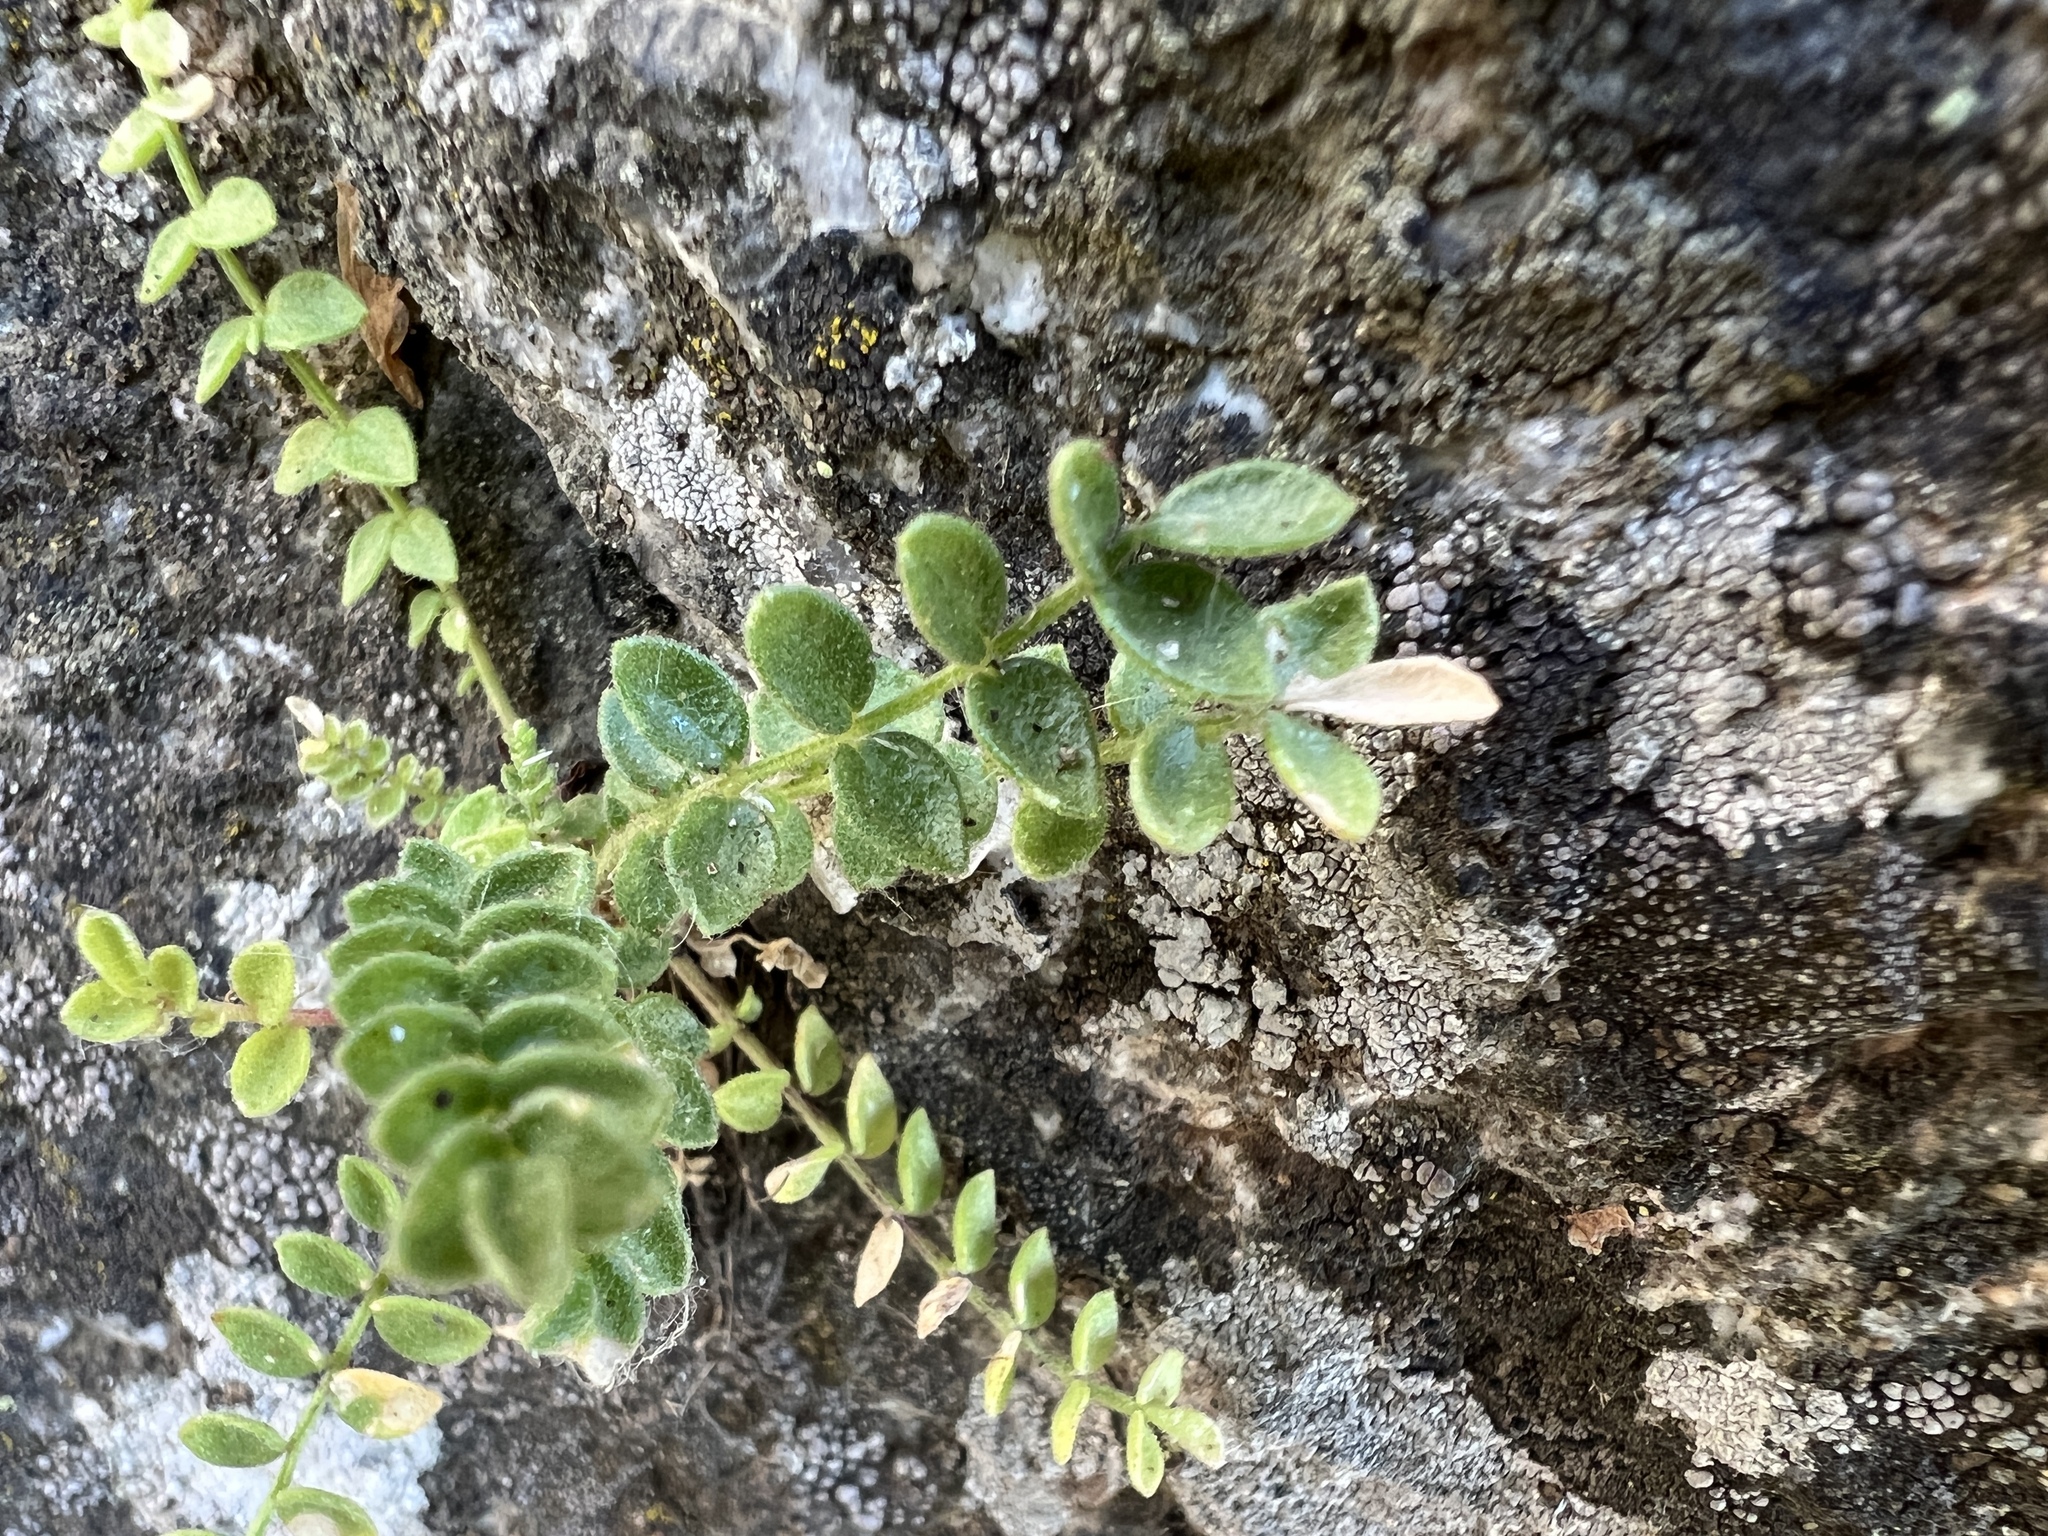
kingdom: Plantae
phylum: Tracheophyta
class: Magnoliopsida
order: Ericales
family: Polemoniaceae
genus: Polemonium
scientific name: Polemonium pulcherrimum
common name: Short jacob's-ladder
